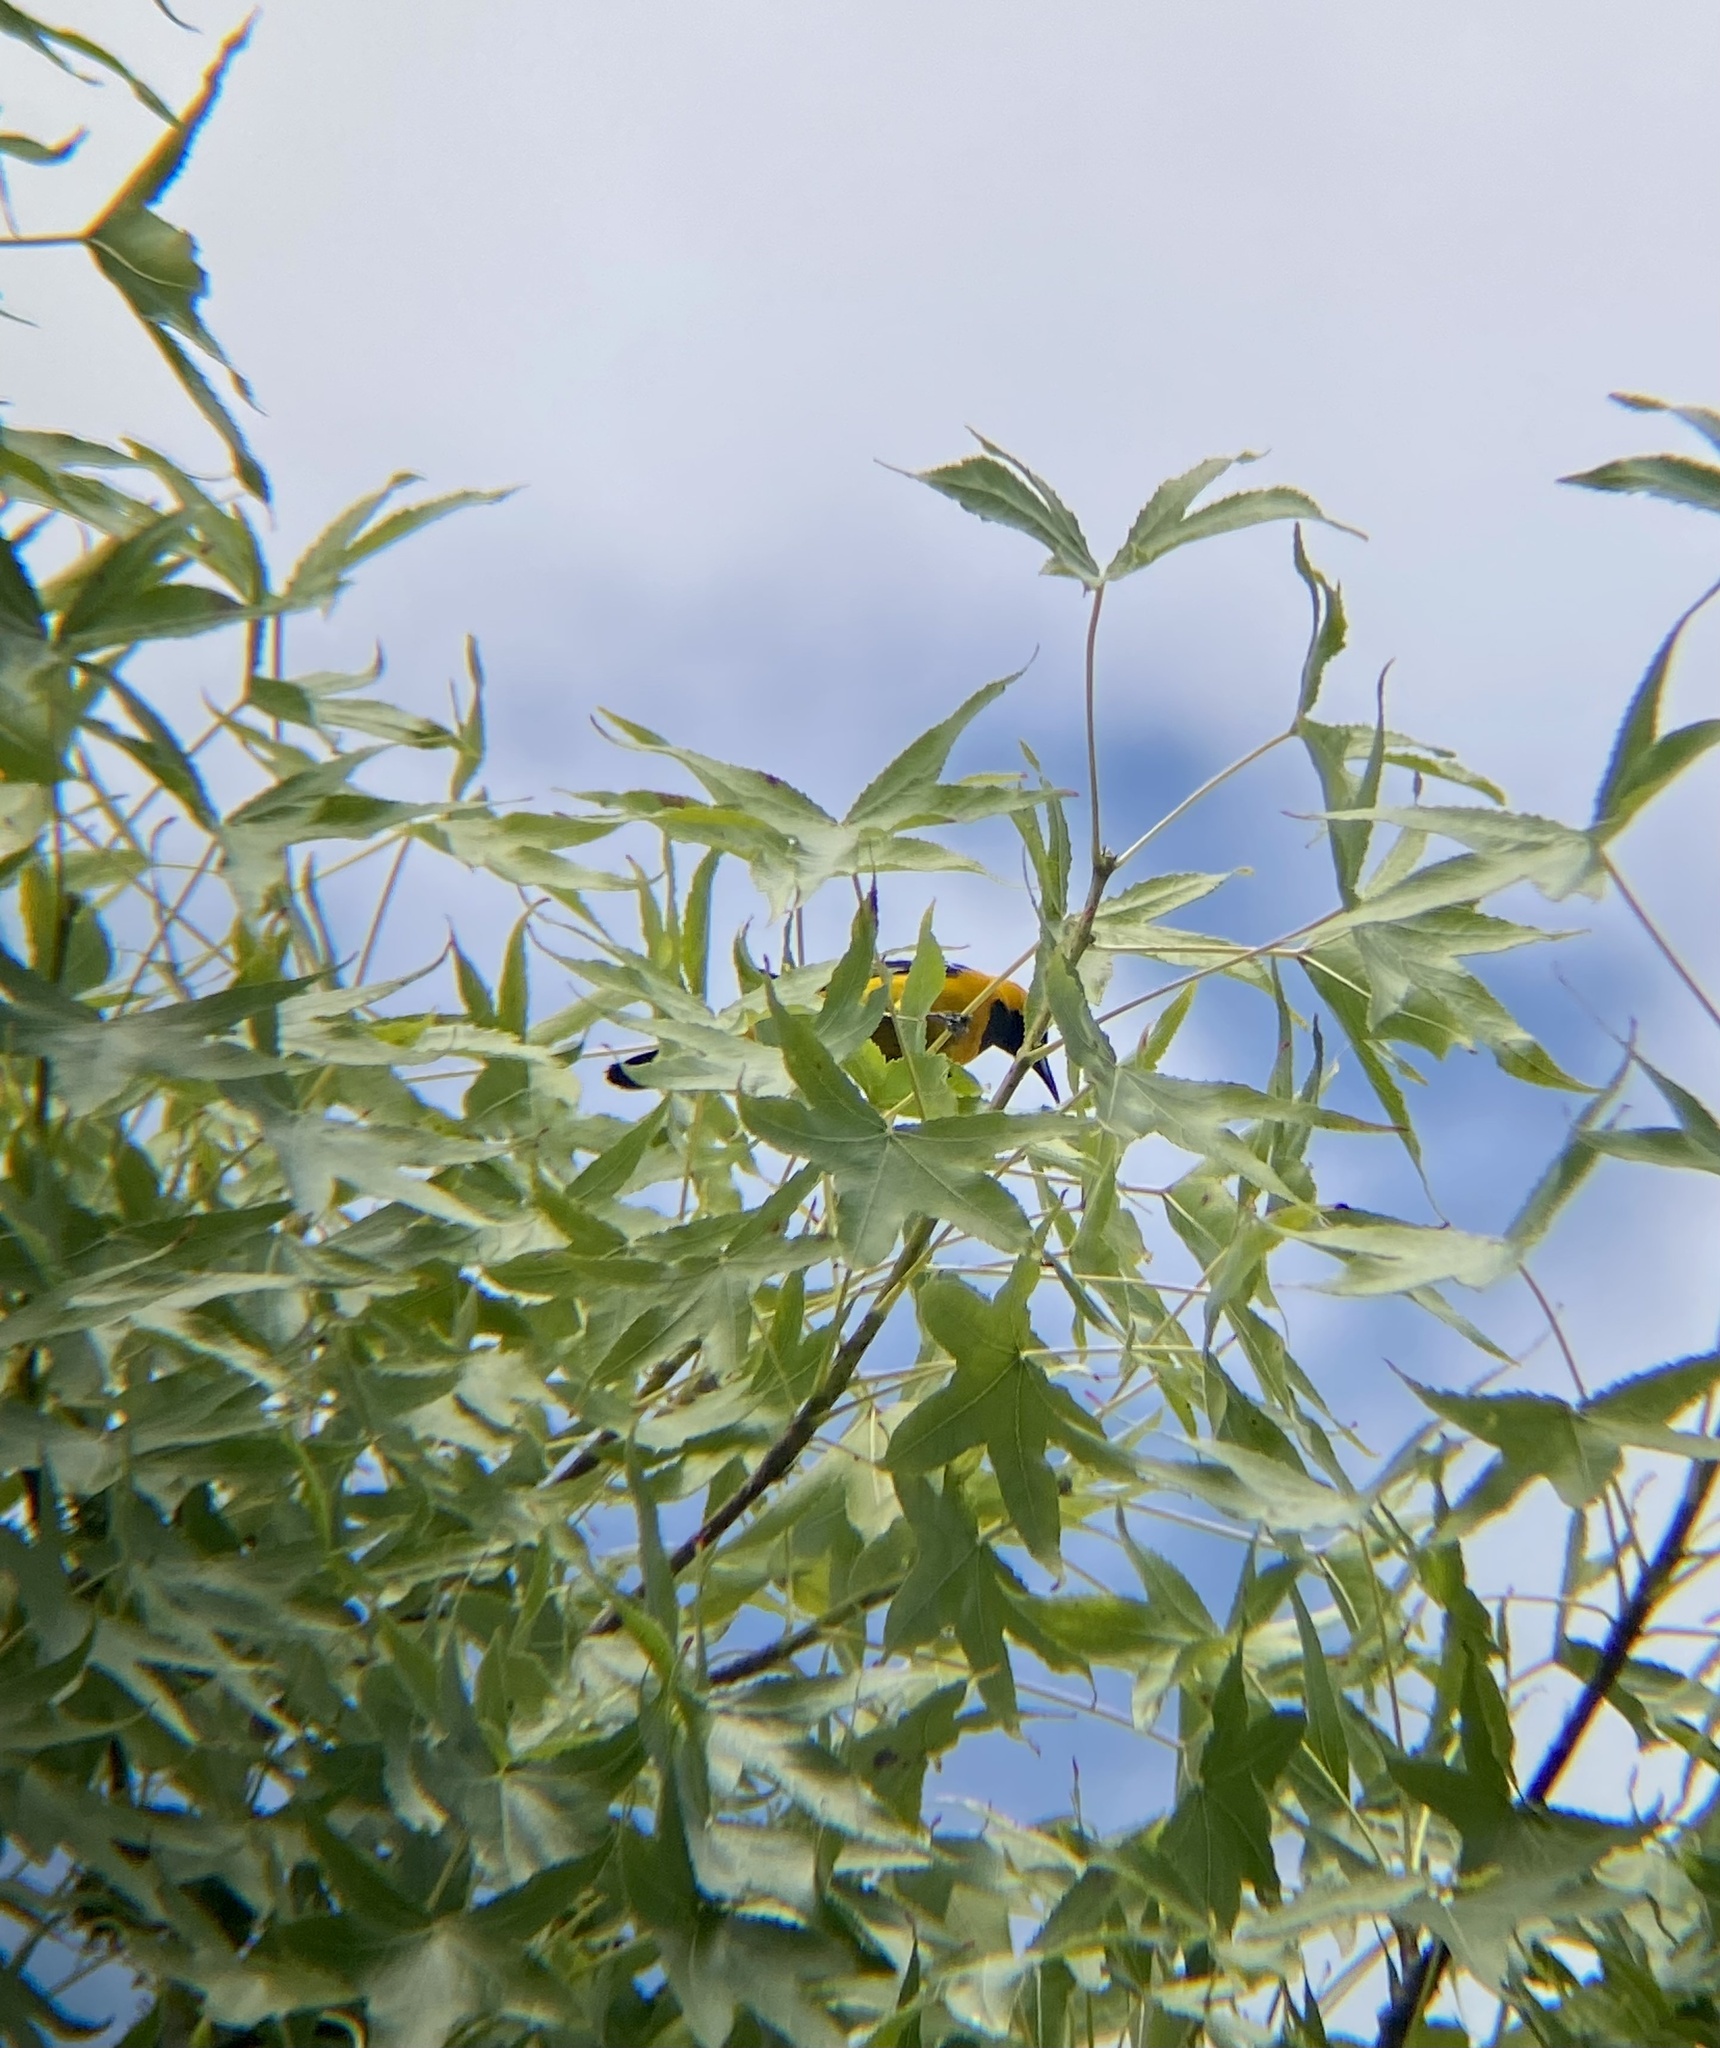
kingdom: Animalia
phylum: Chordata
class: Aves
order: Passeriformes
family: Icteridae
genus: Icterus
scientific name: Icterus cucullatus
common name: Hooded oriole
